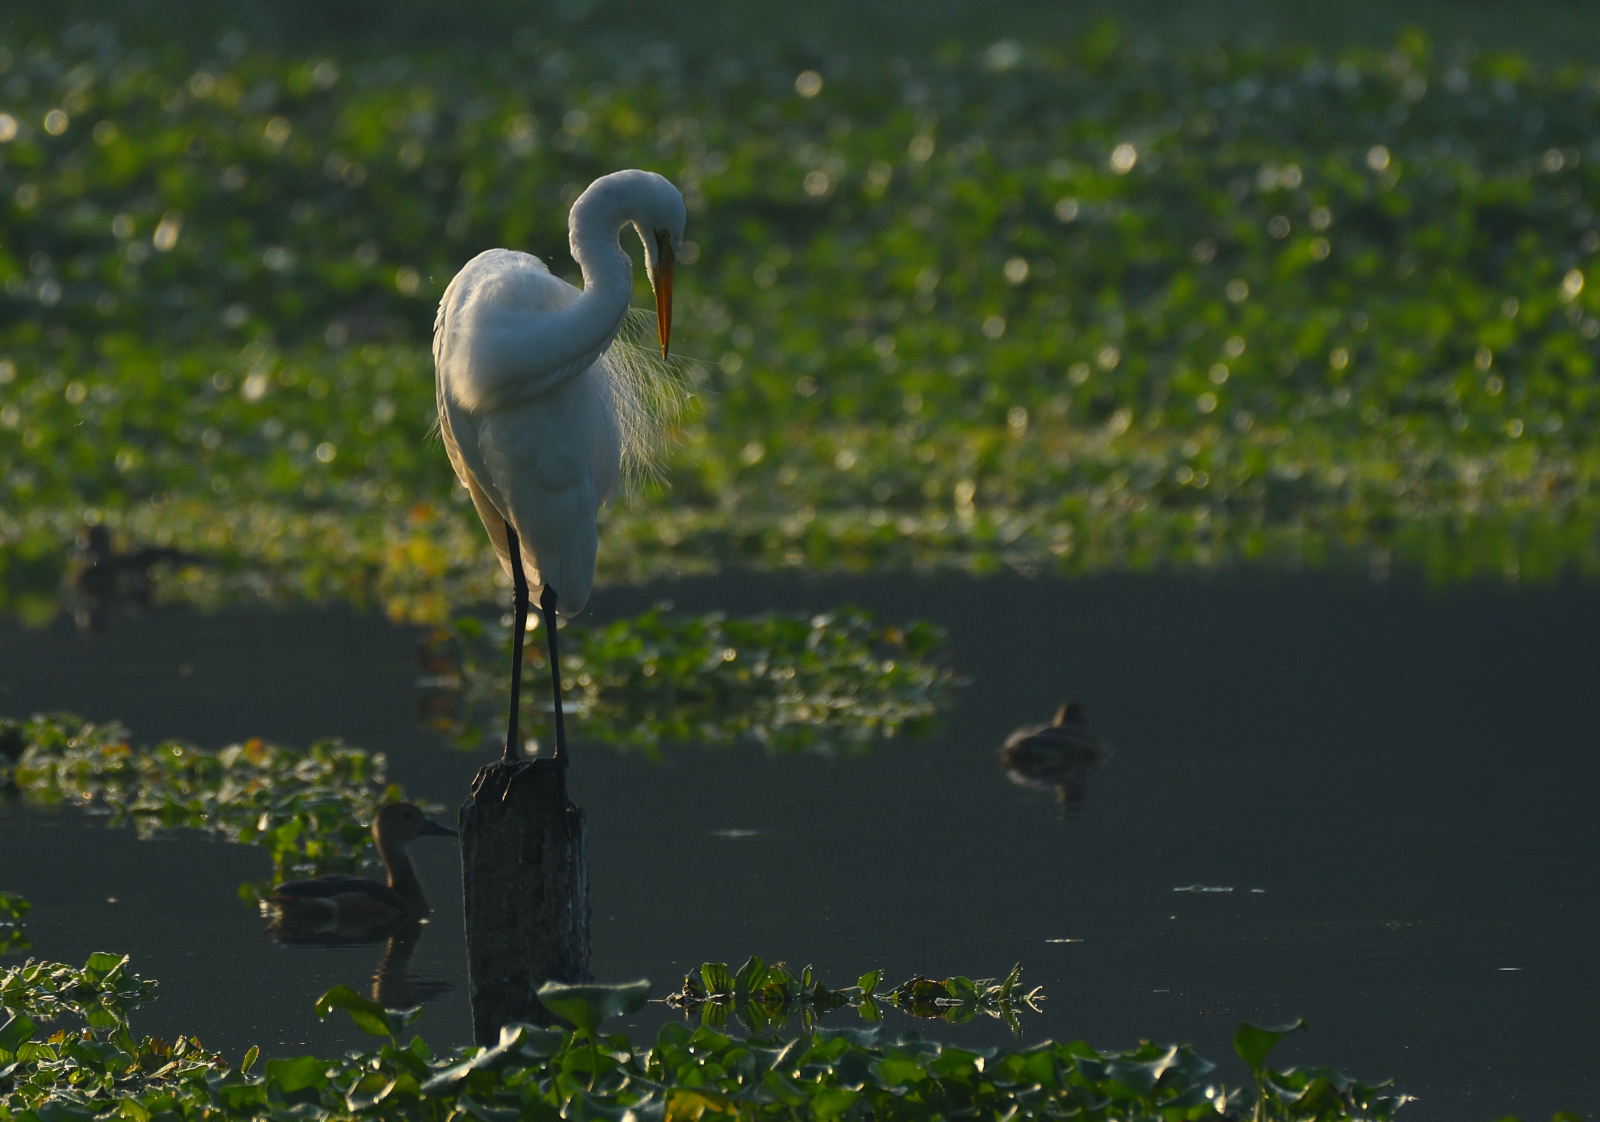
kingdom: Animalia
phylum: Chordata
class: Aves
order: Pelecaniformes
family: Ardeidae
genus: Ardea
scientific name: Ardea alba
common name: Great egret
